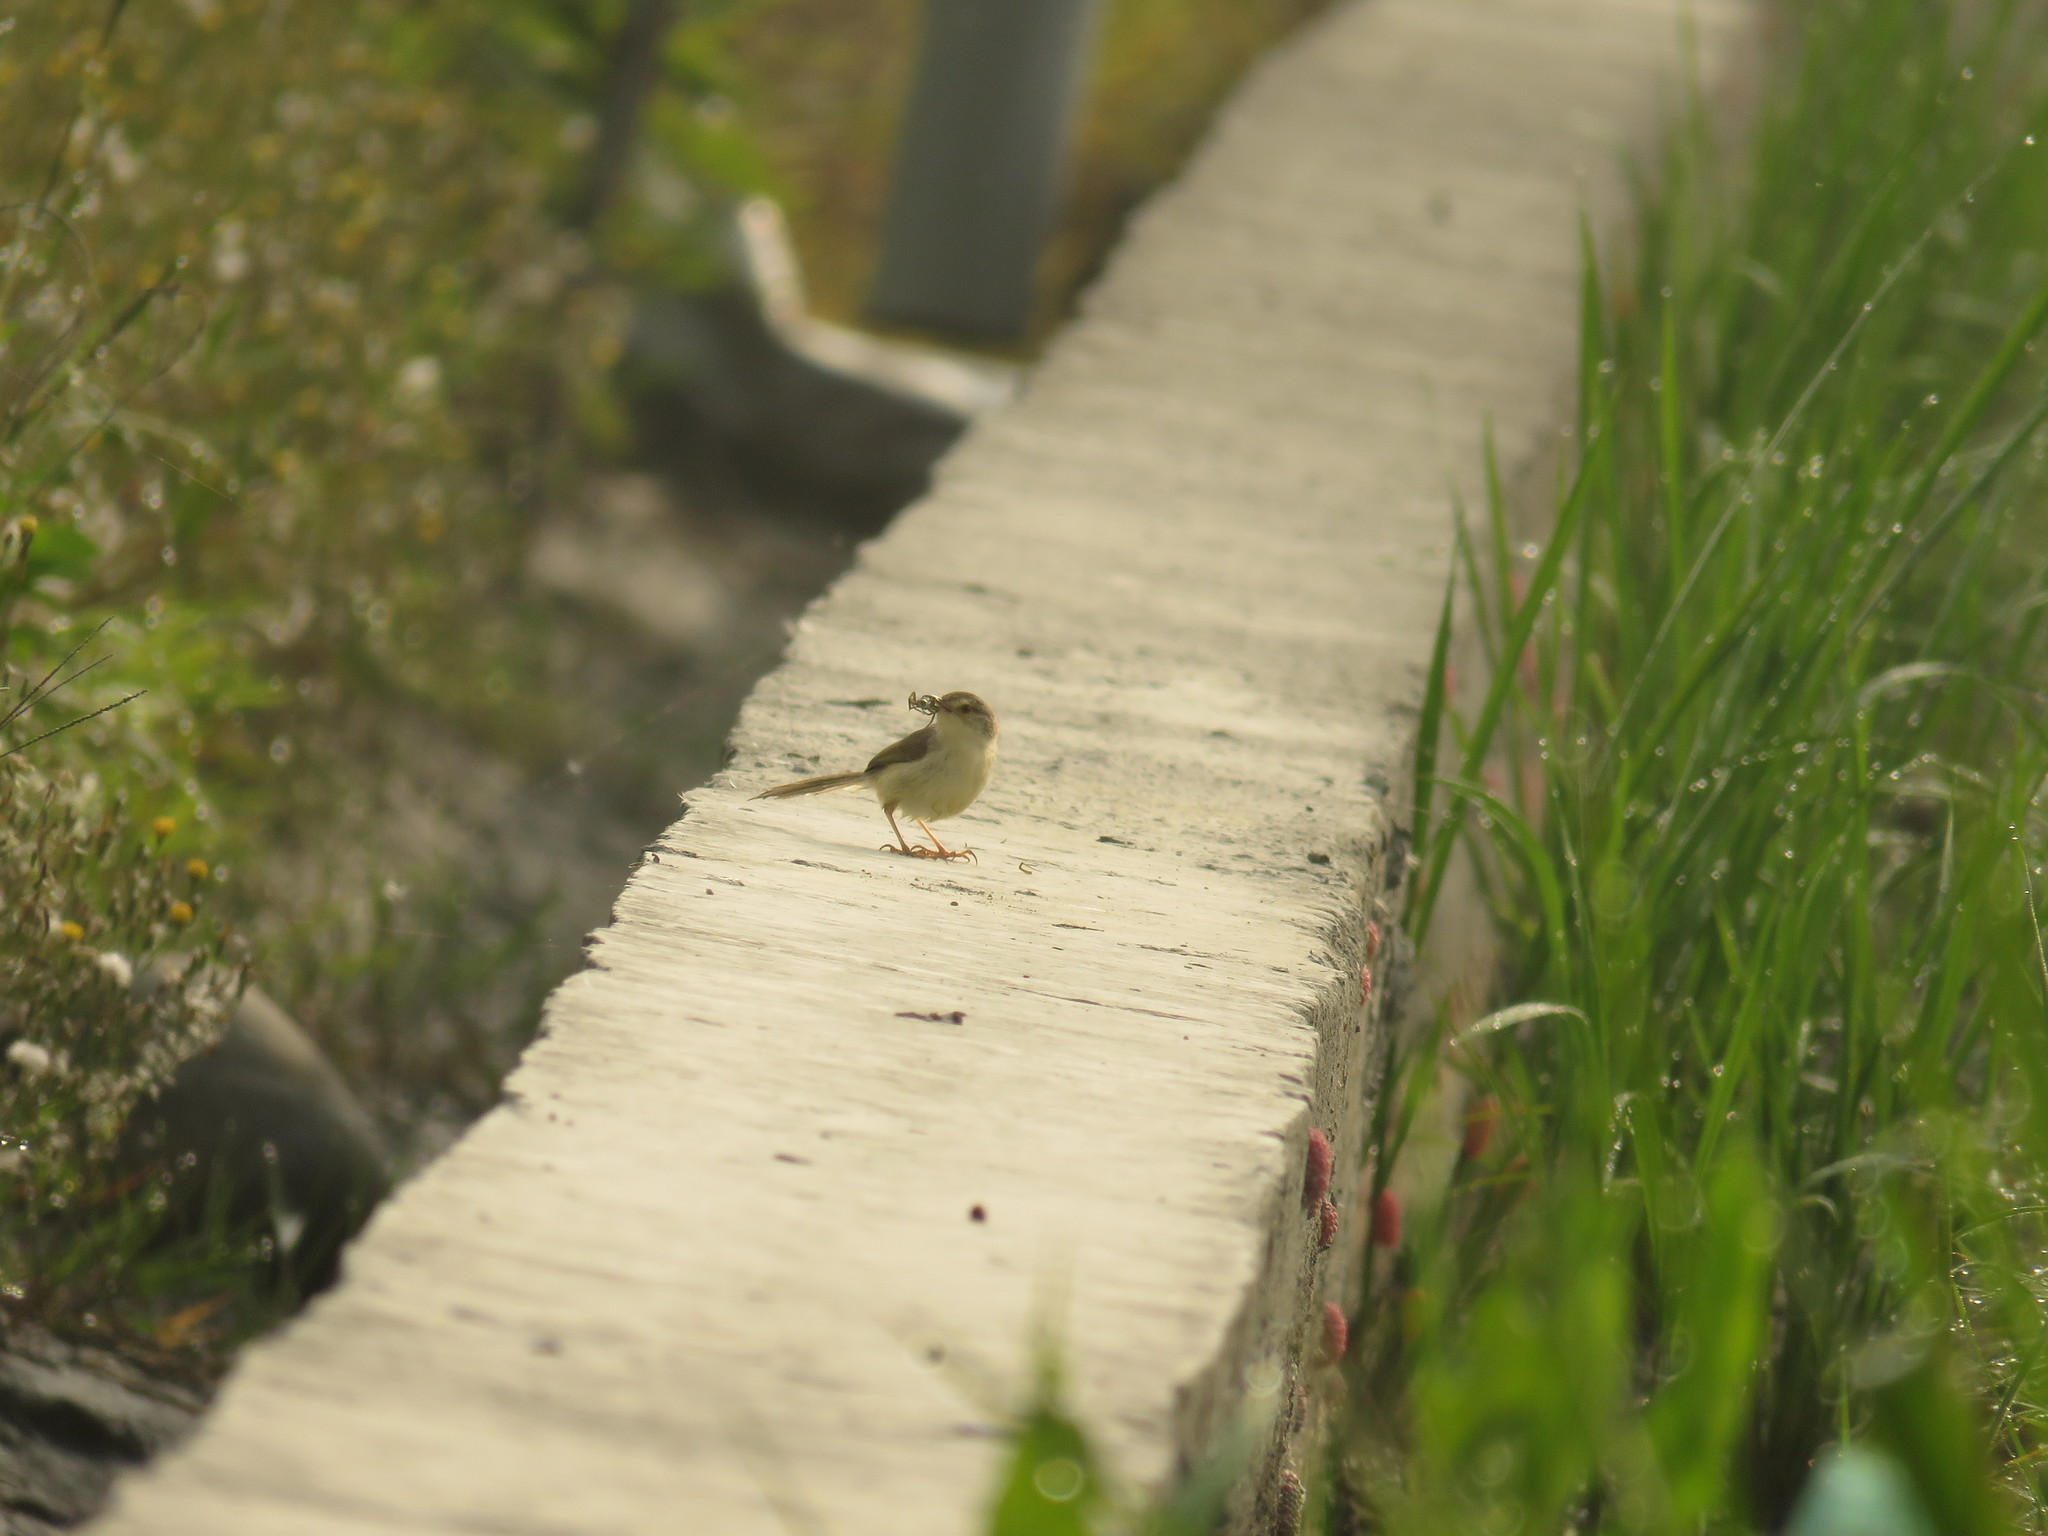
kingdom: Animalia
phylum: Chordata
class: Aves
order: Passeriformes
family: Cisticolidae
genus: Prinia
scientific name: Prinia inornata
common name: Plain prinia
